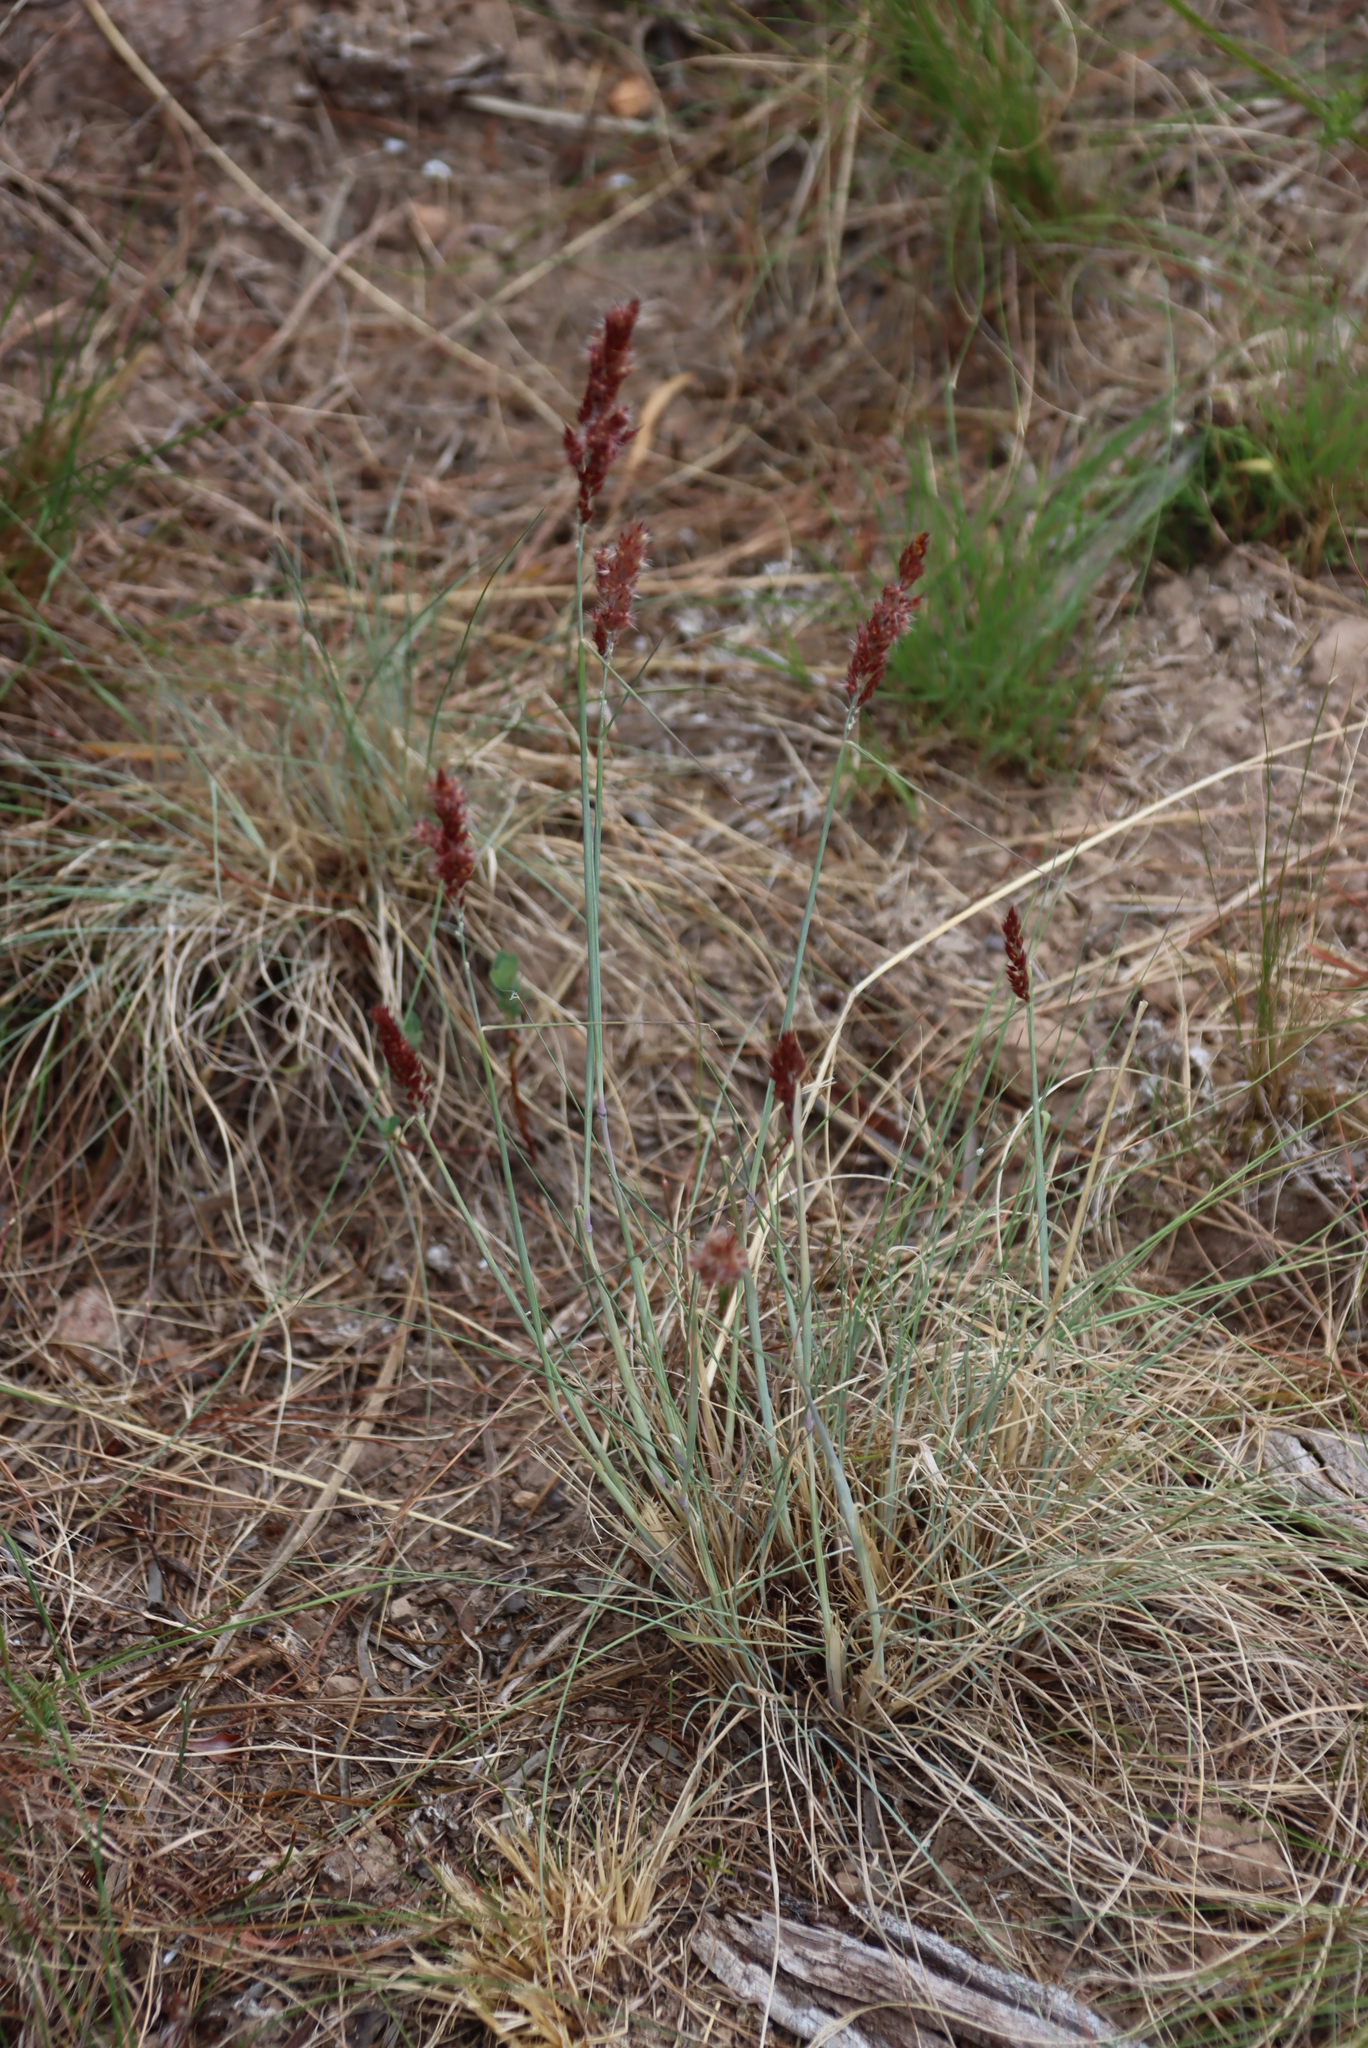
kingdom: Plantae
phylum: Tracheophyta
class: Liliopsida
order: Poales
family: Poaceae
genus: Melinis
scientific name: Melinis nerviglumis
